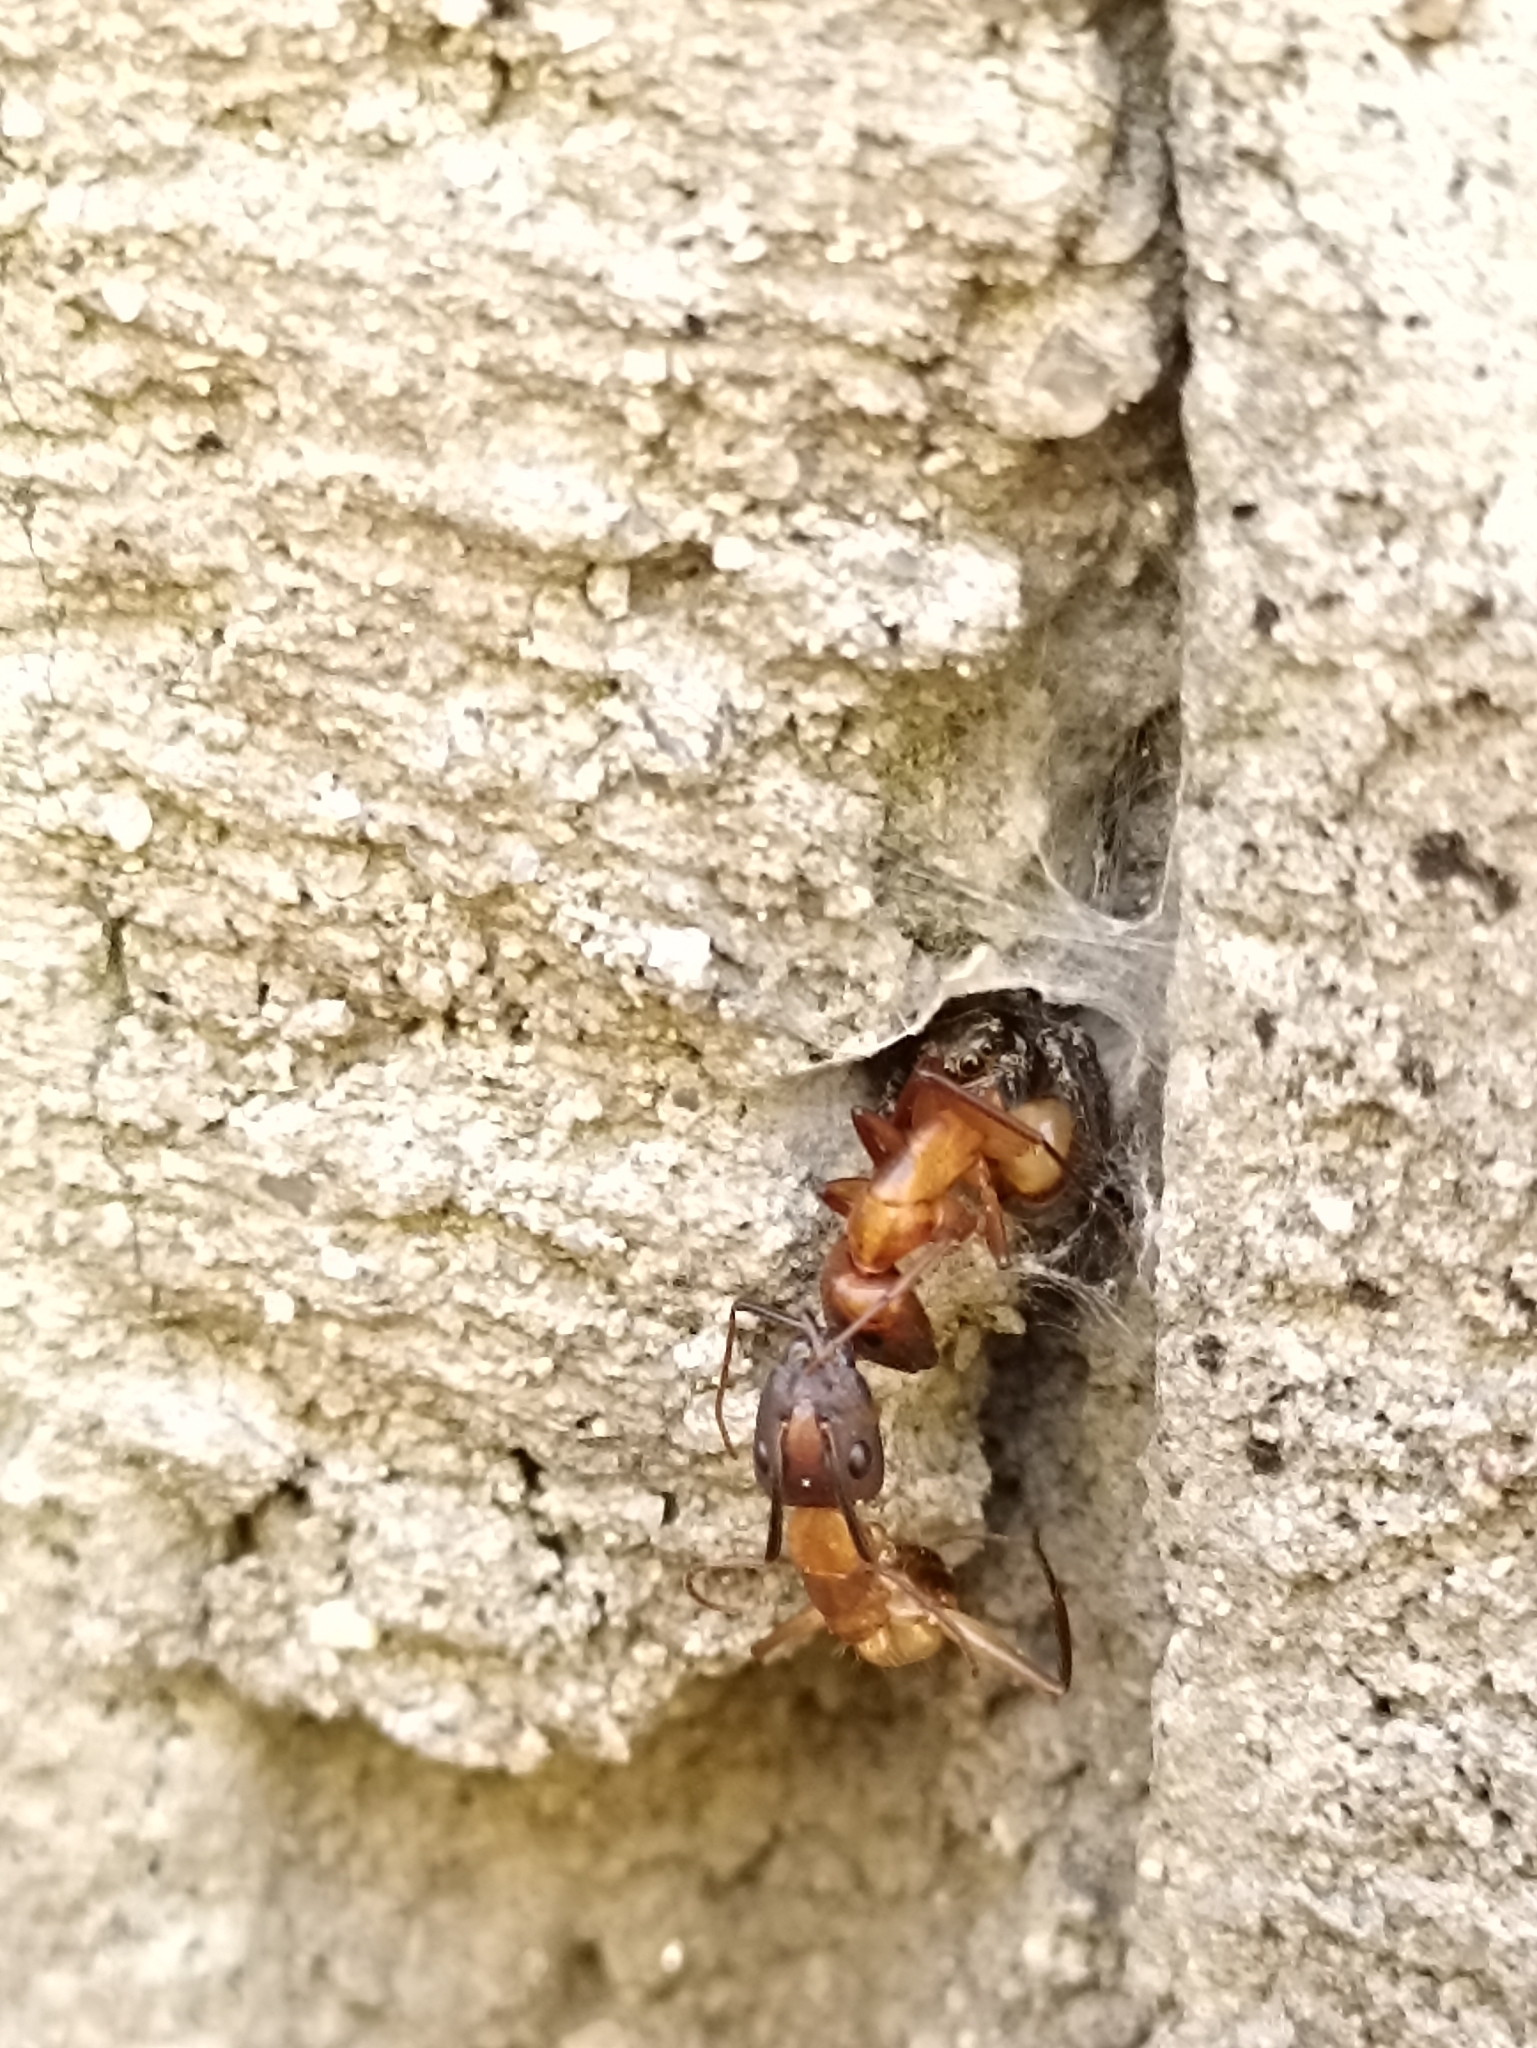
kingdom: Animalia
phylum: Arthropoda
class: Arachnida
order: Araneae
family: Salticidae
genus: Corythalia
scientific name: Corythalia conferta
